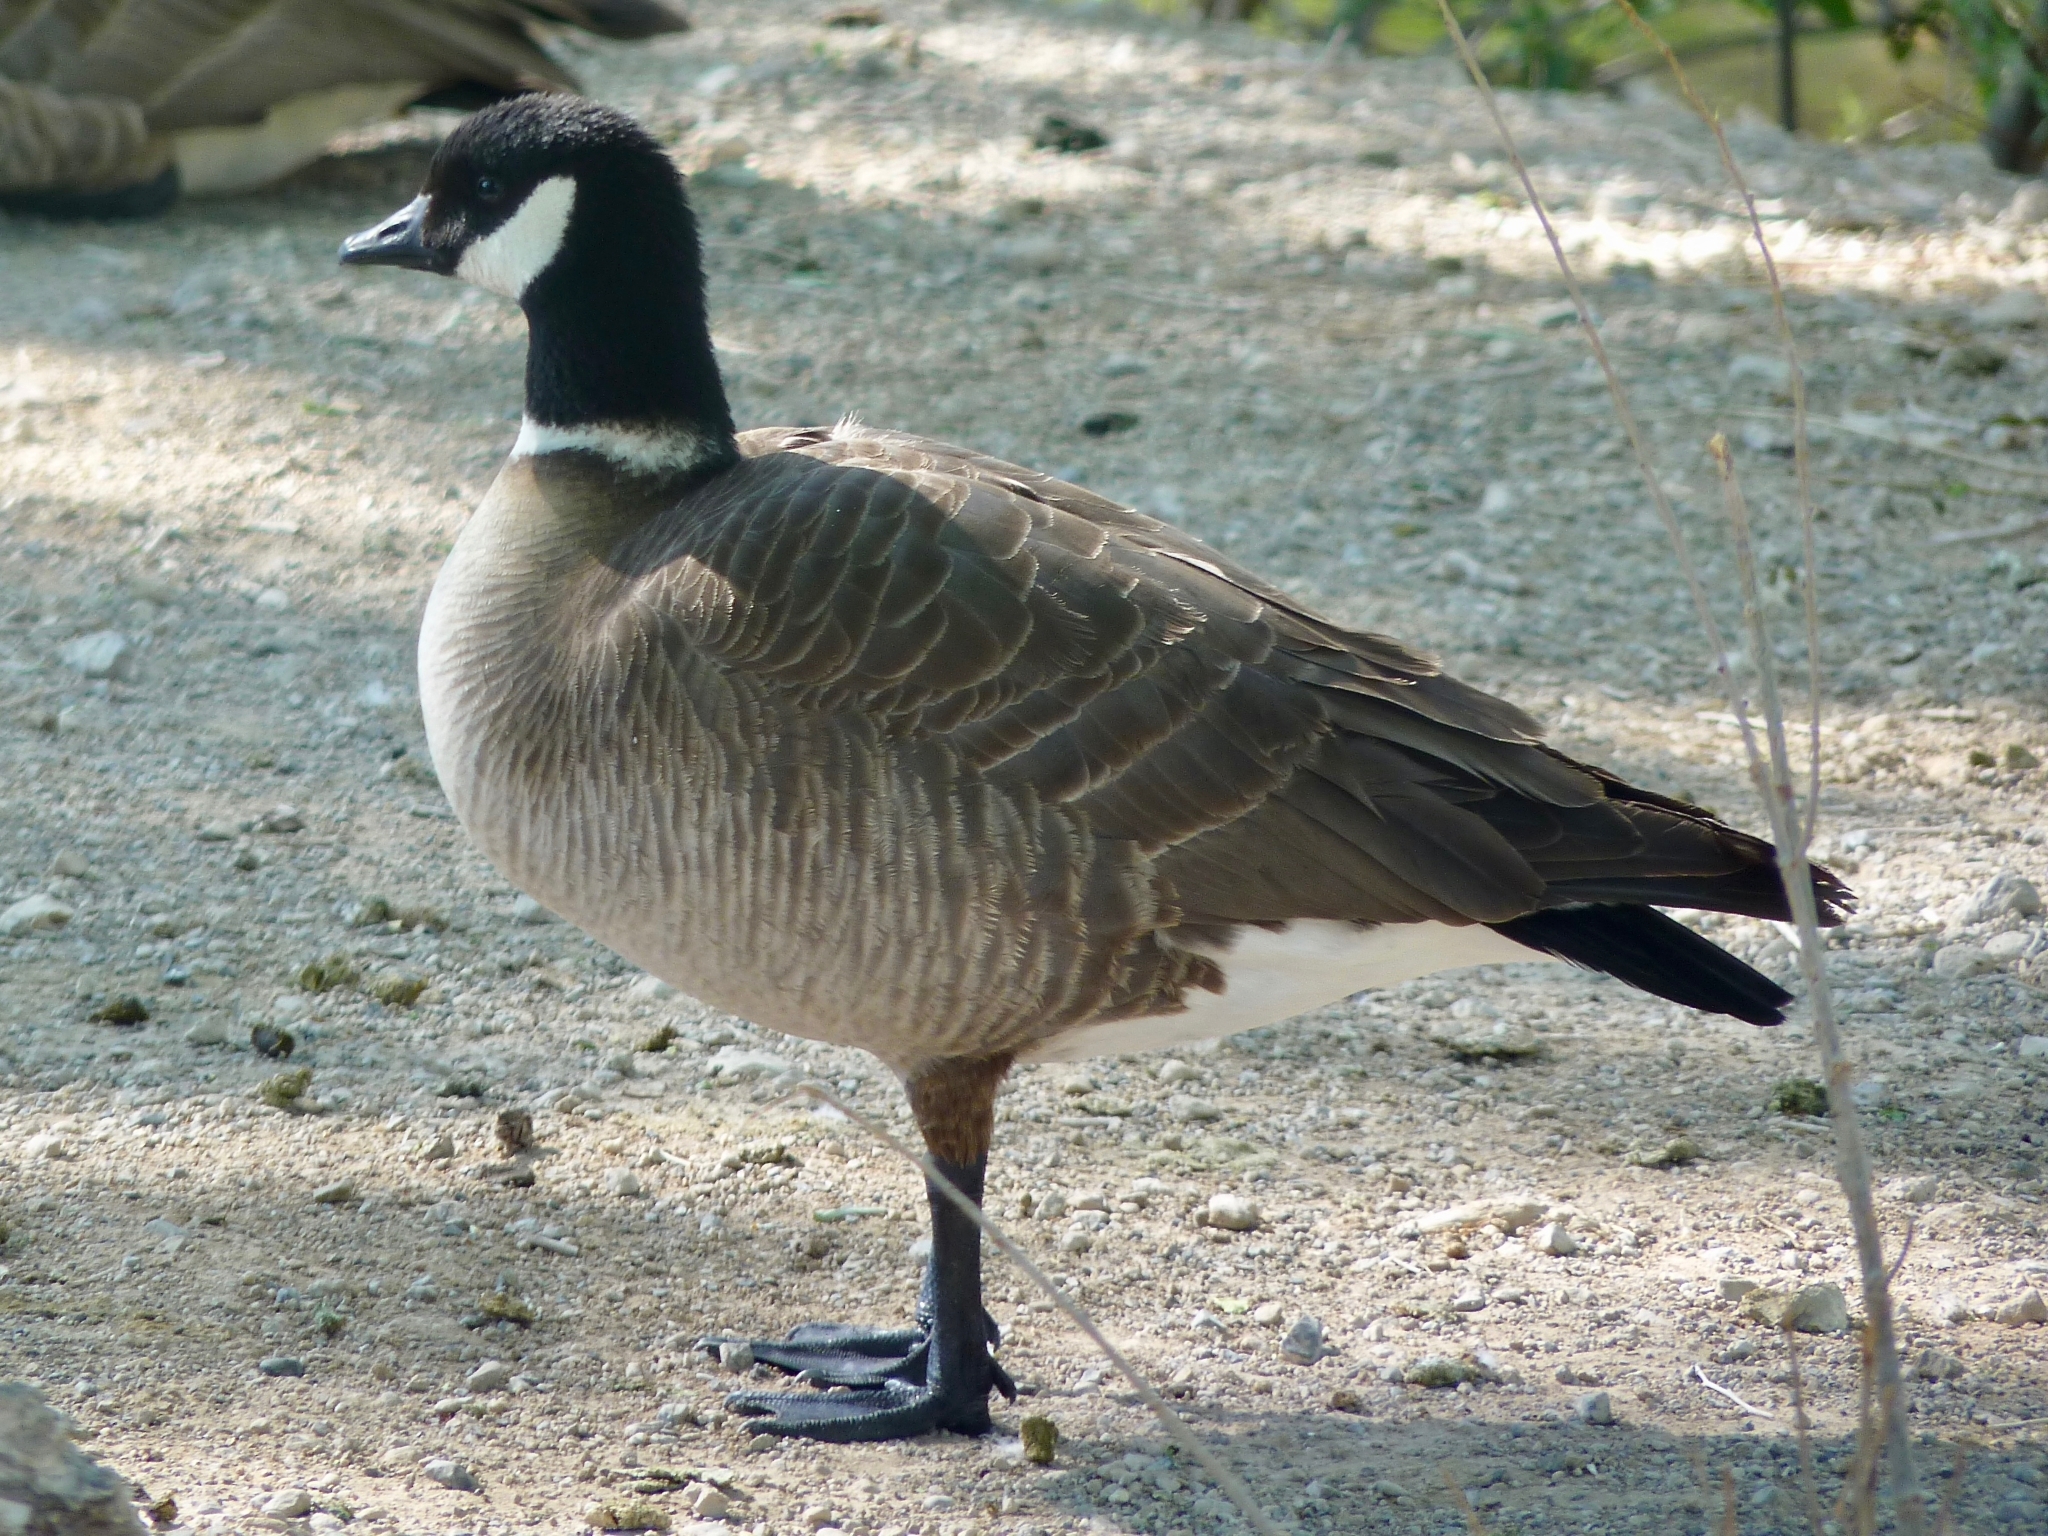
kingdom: Animalia
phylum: Chordata
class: Aves
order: Anseriformes
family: Anatidae
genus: Branta
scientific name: Branta hutchinsii
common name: Cackling goose
